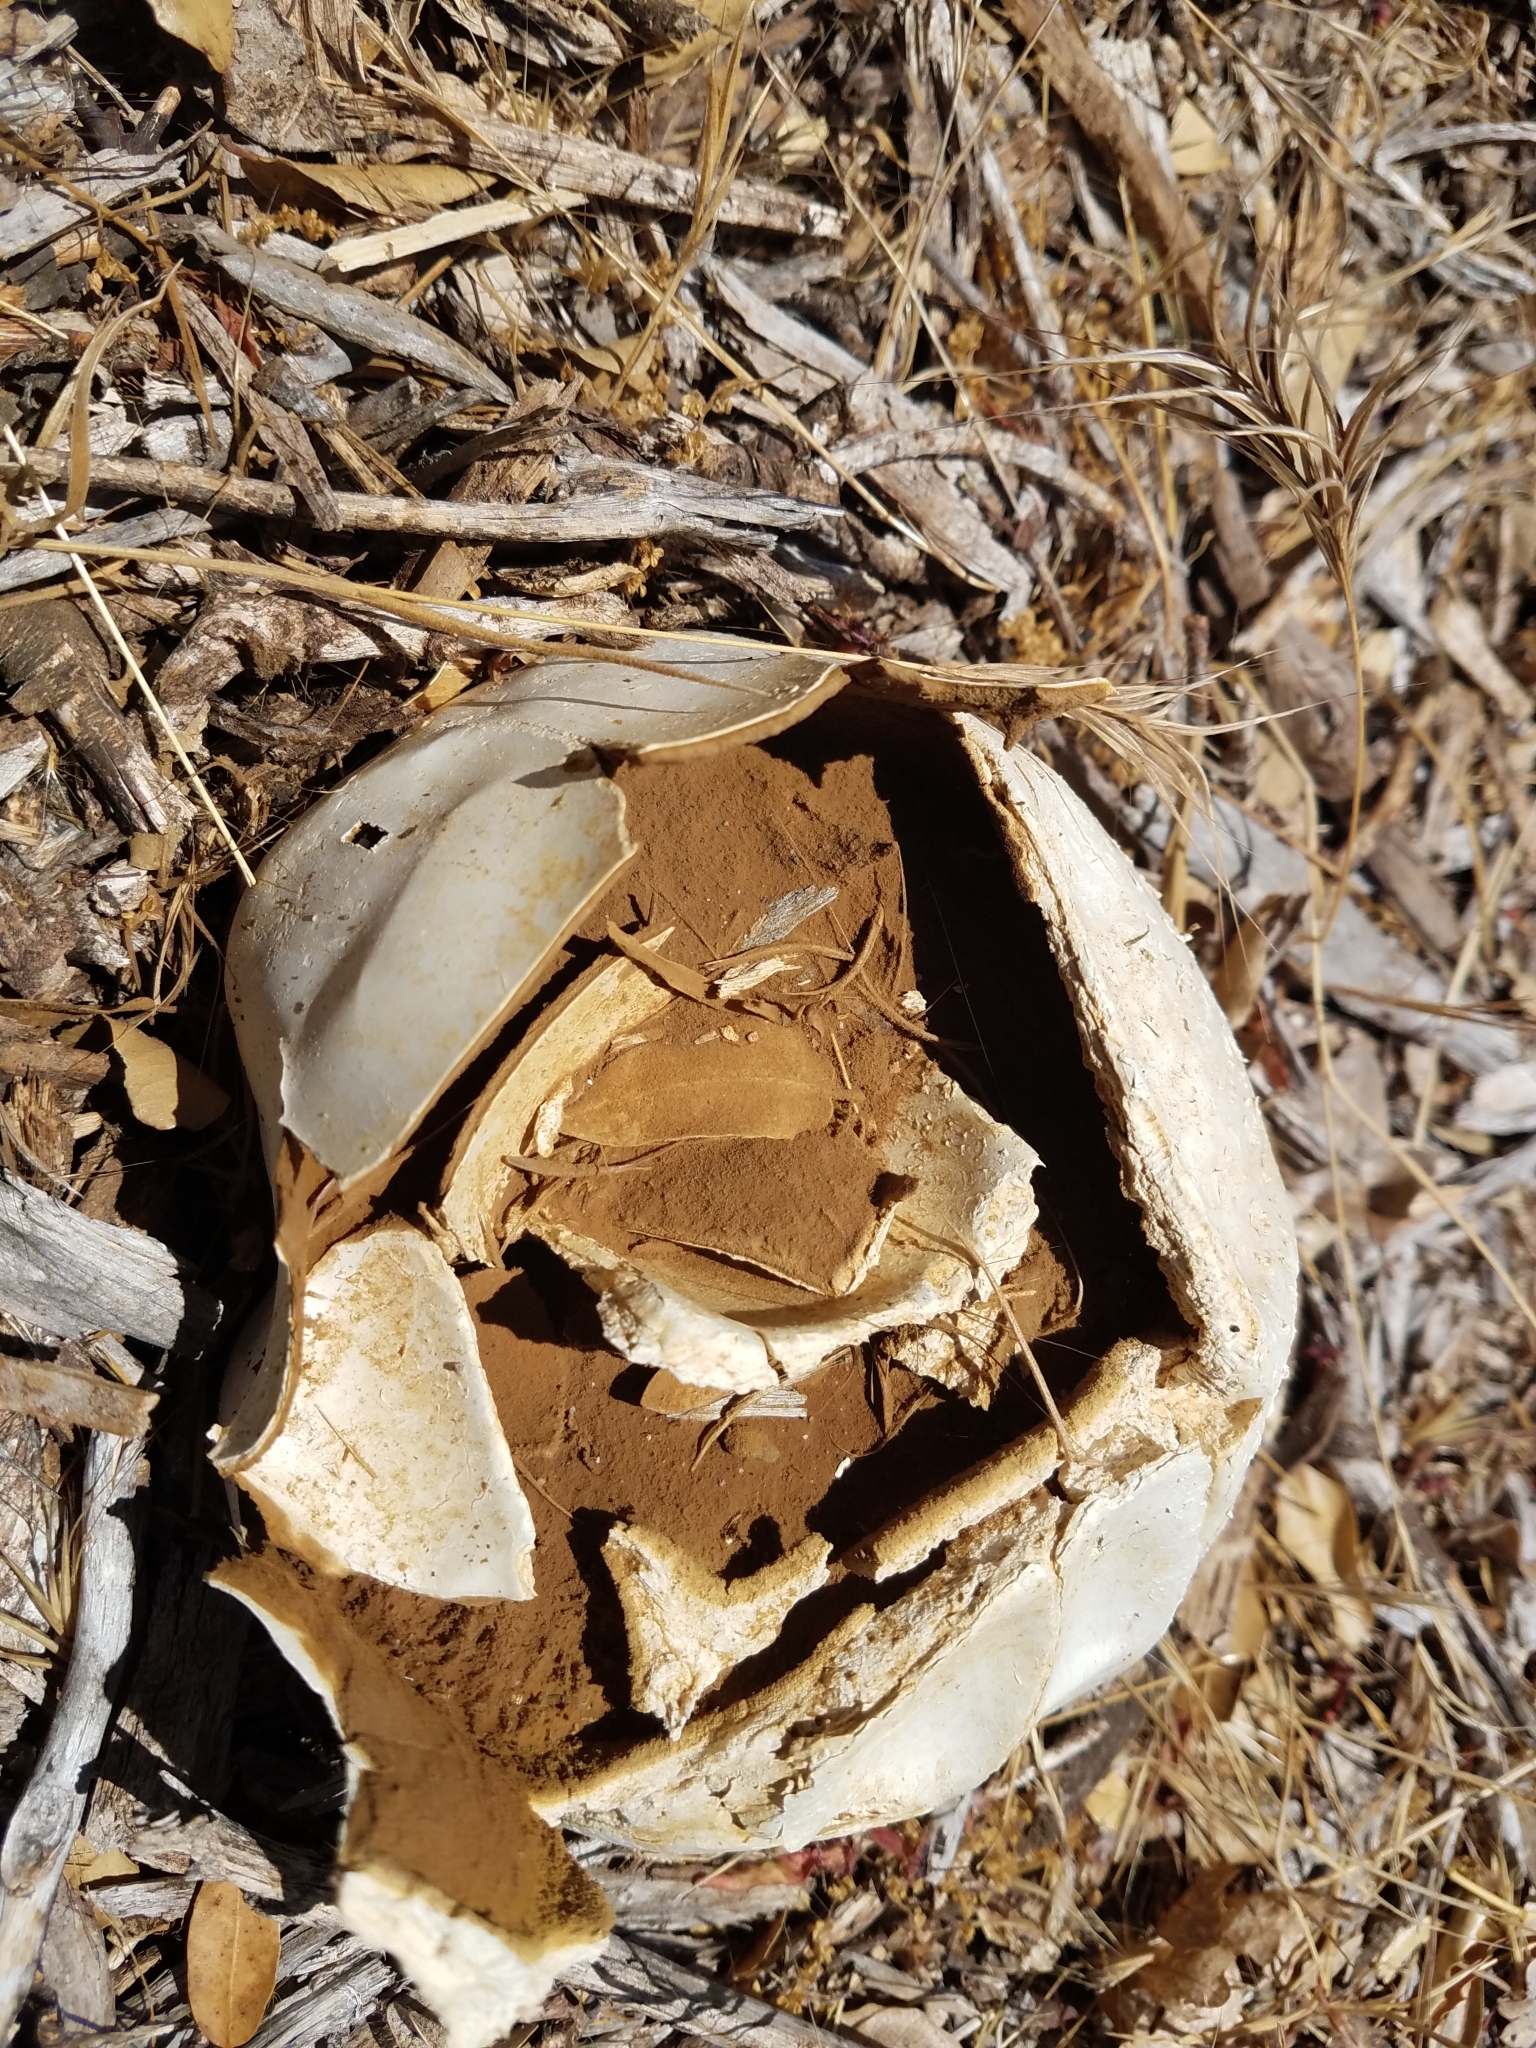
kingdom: Fungi
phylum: Basidiomycota
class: Agaricomycetes
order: Agaricales
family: Lycoperdaceae
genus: Calvatia
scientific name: Calvatia booniana
